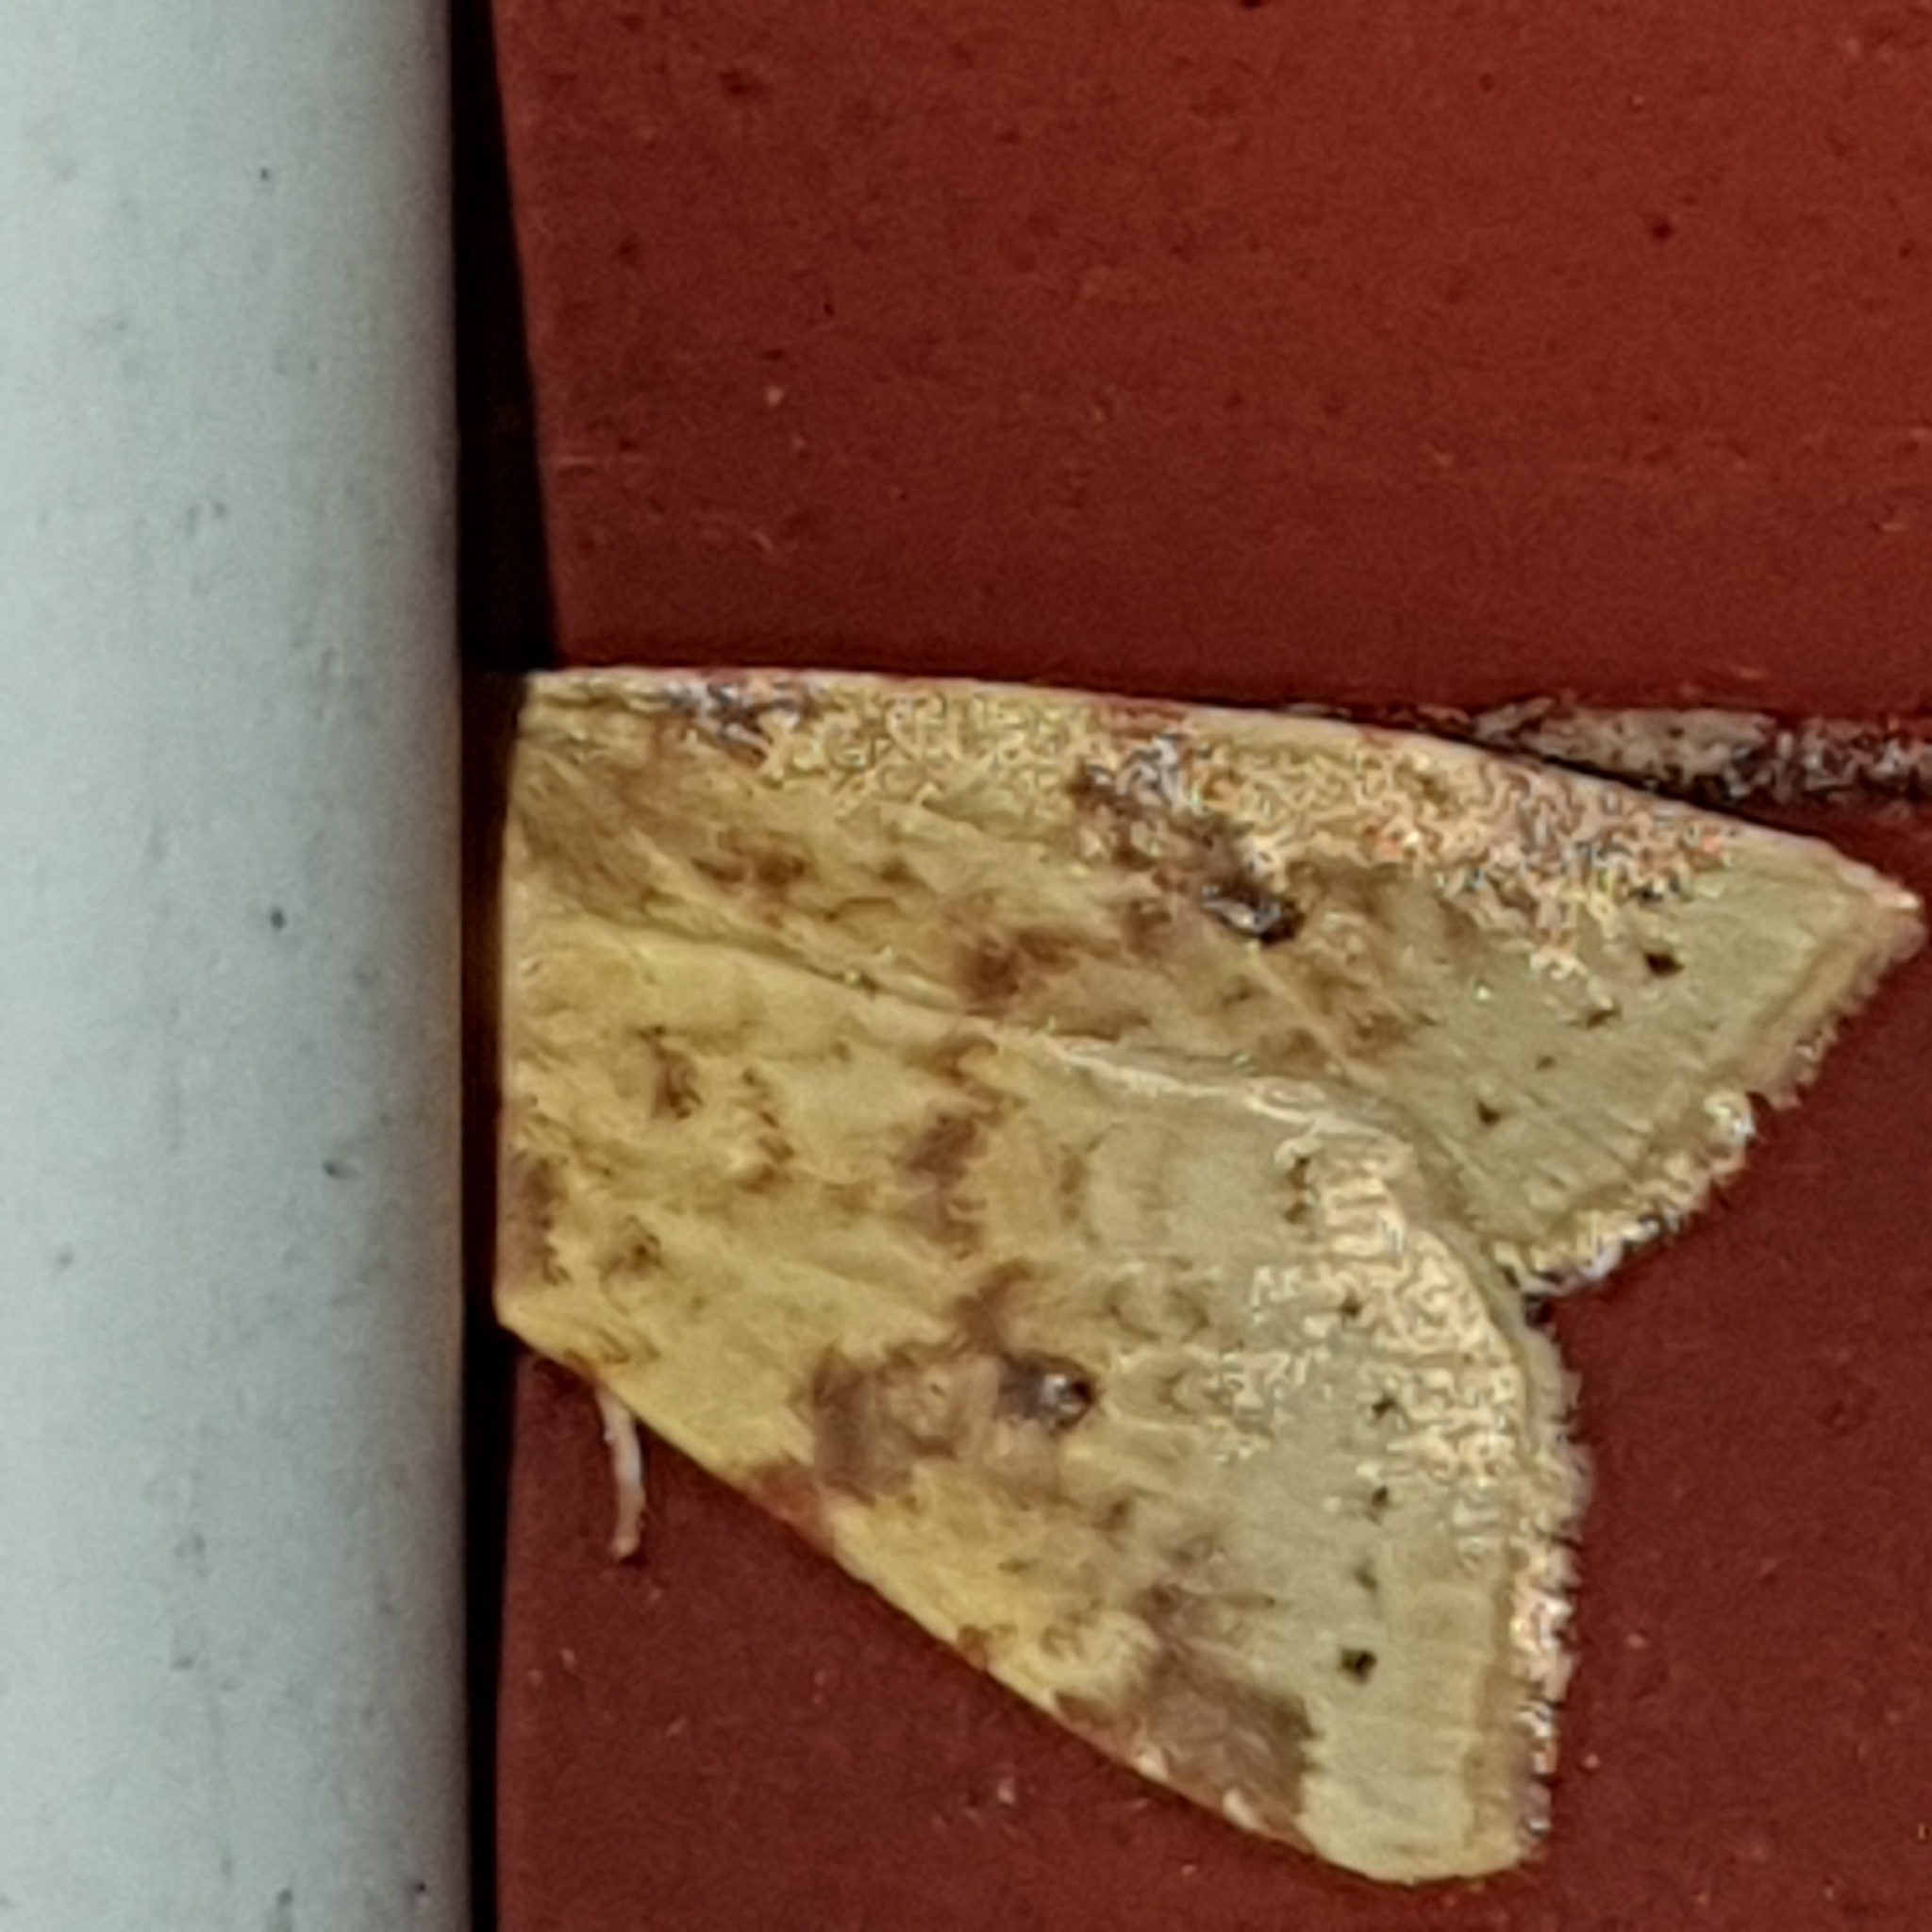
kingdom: Animalia
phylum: Arthropoda
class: Insecta
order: Lepidoptera
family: Noctuidae
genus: Xanthia
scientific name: Xanthia icteritia
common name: The sallow
